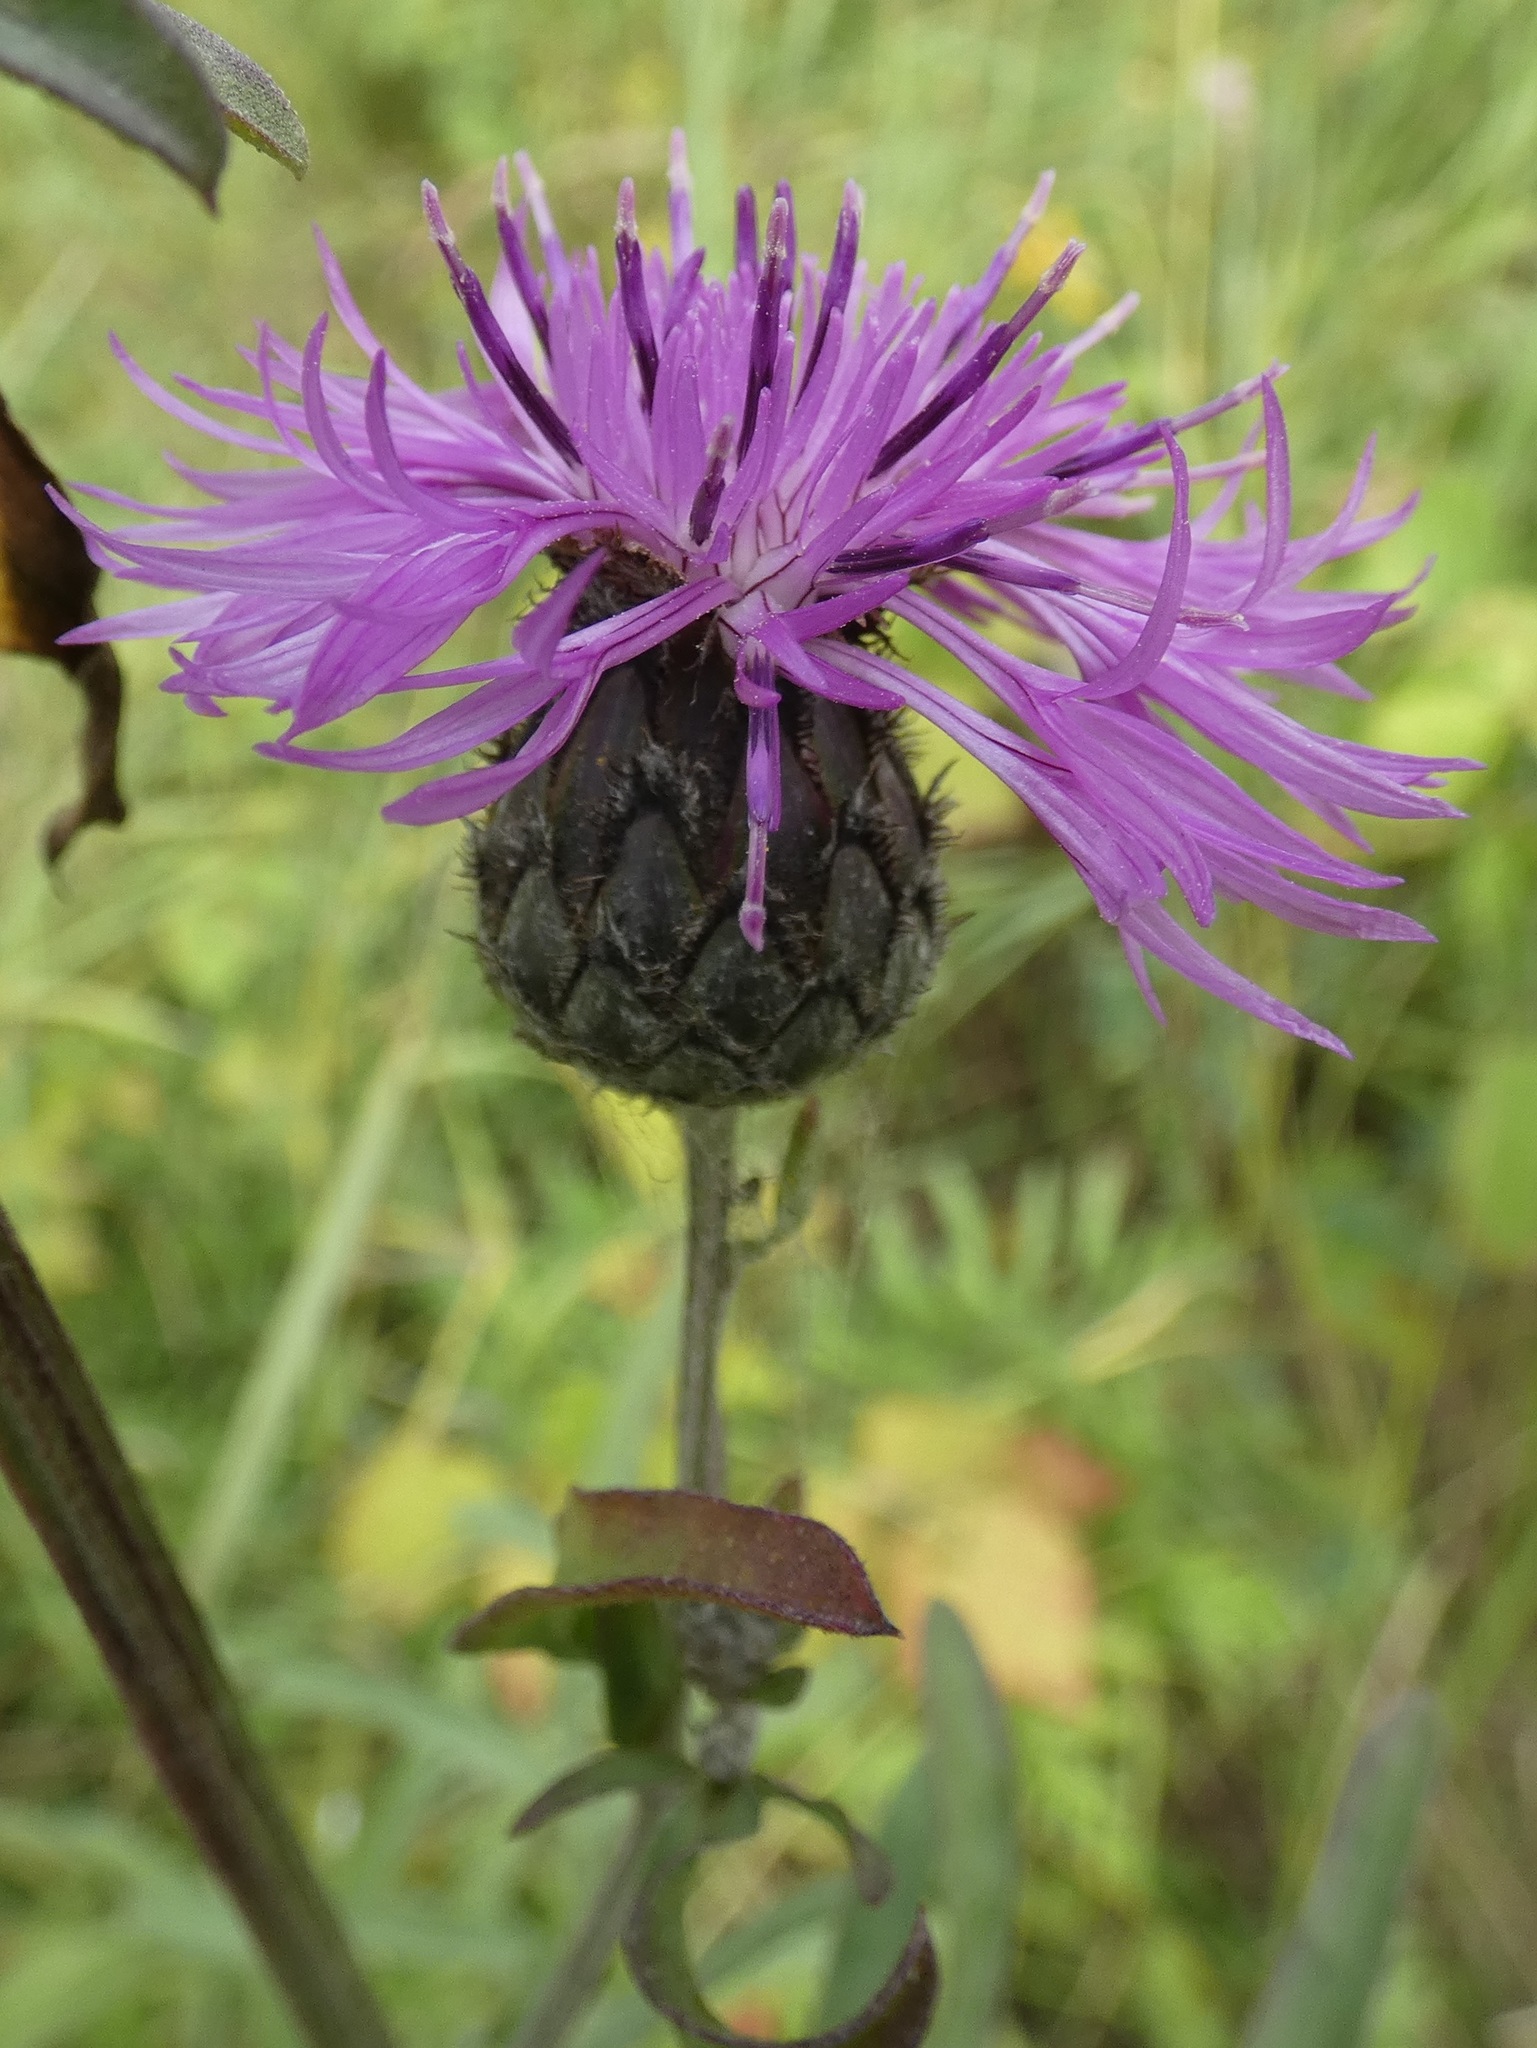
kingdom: Plantae
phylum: Tracheophyta
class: Magnoliopsida
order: Asterales
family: Asteraceae
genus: Centaurea
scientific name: Centaurea scabiosa
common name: Greater knapweed
